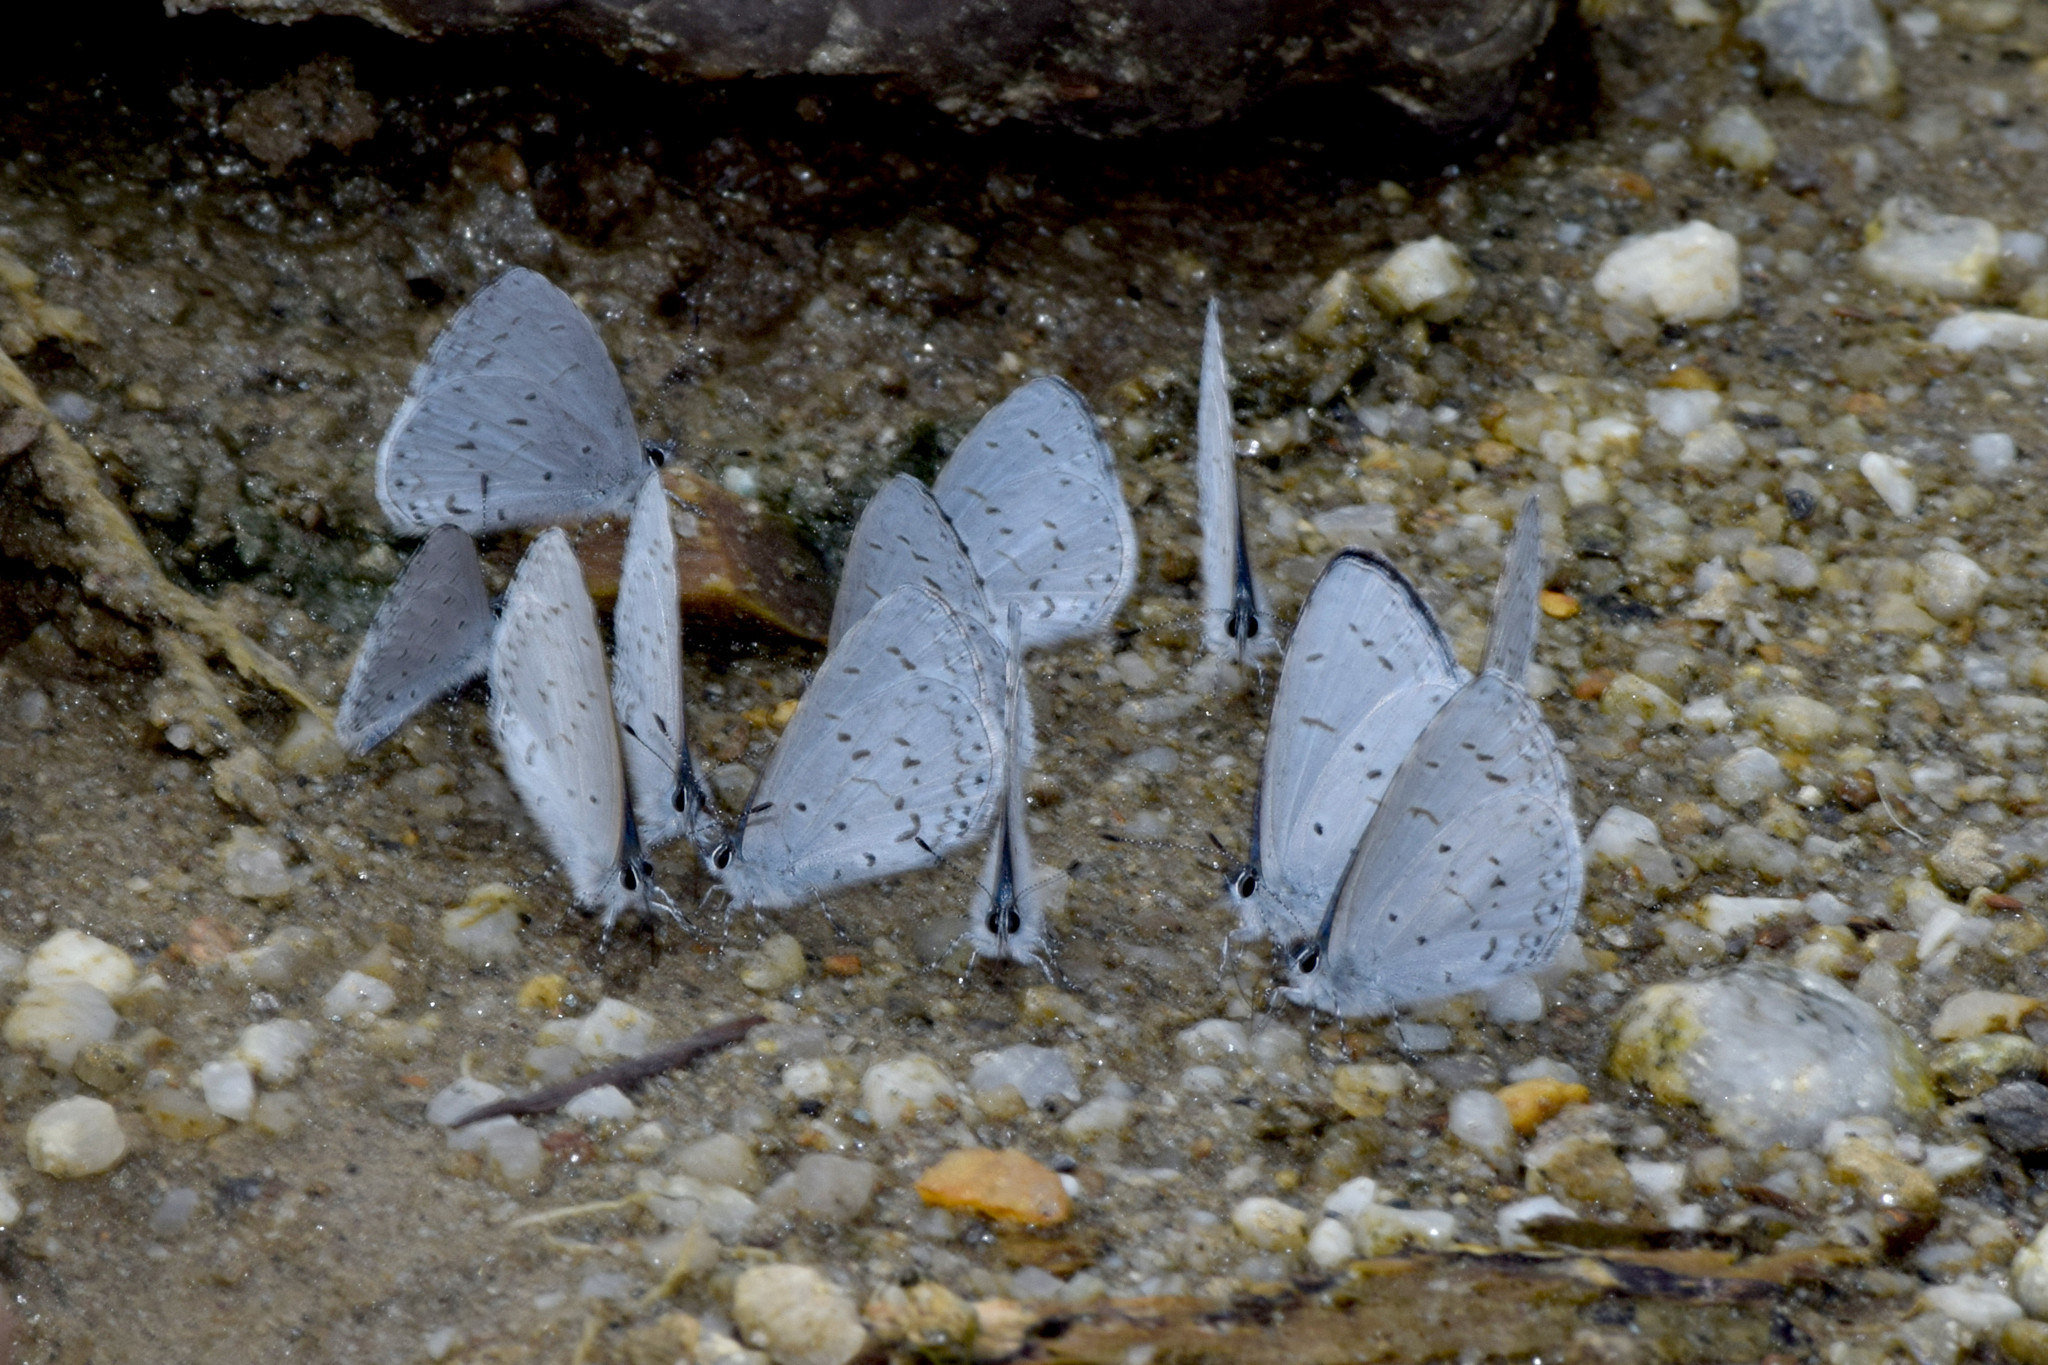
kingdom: Animalia
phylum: Arthropoda
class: Insecta
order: Lepidoptera
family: Lycaenidae
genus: Celastrina
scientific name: Celastrina lavendularis
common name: Plain hedge blue
